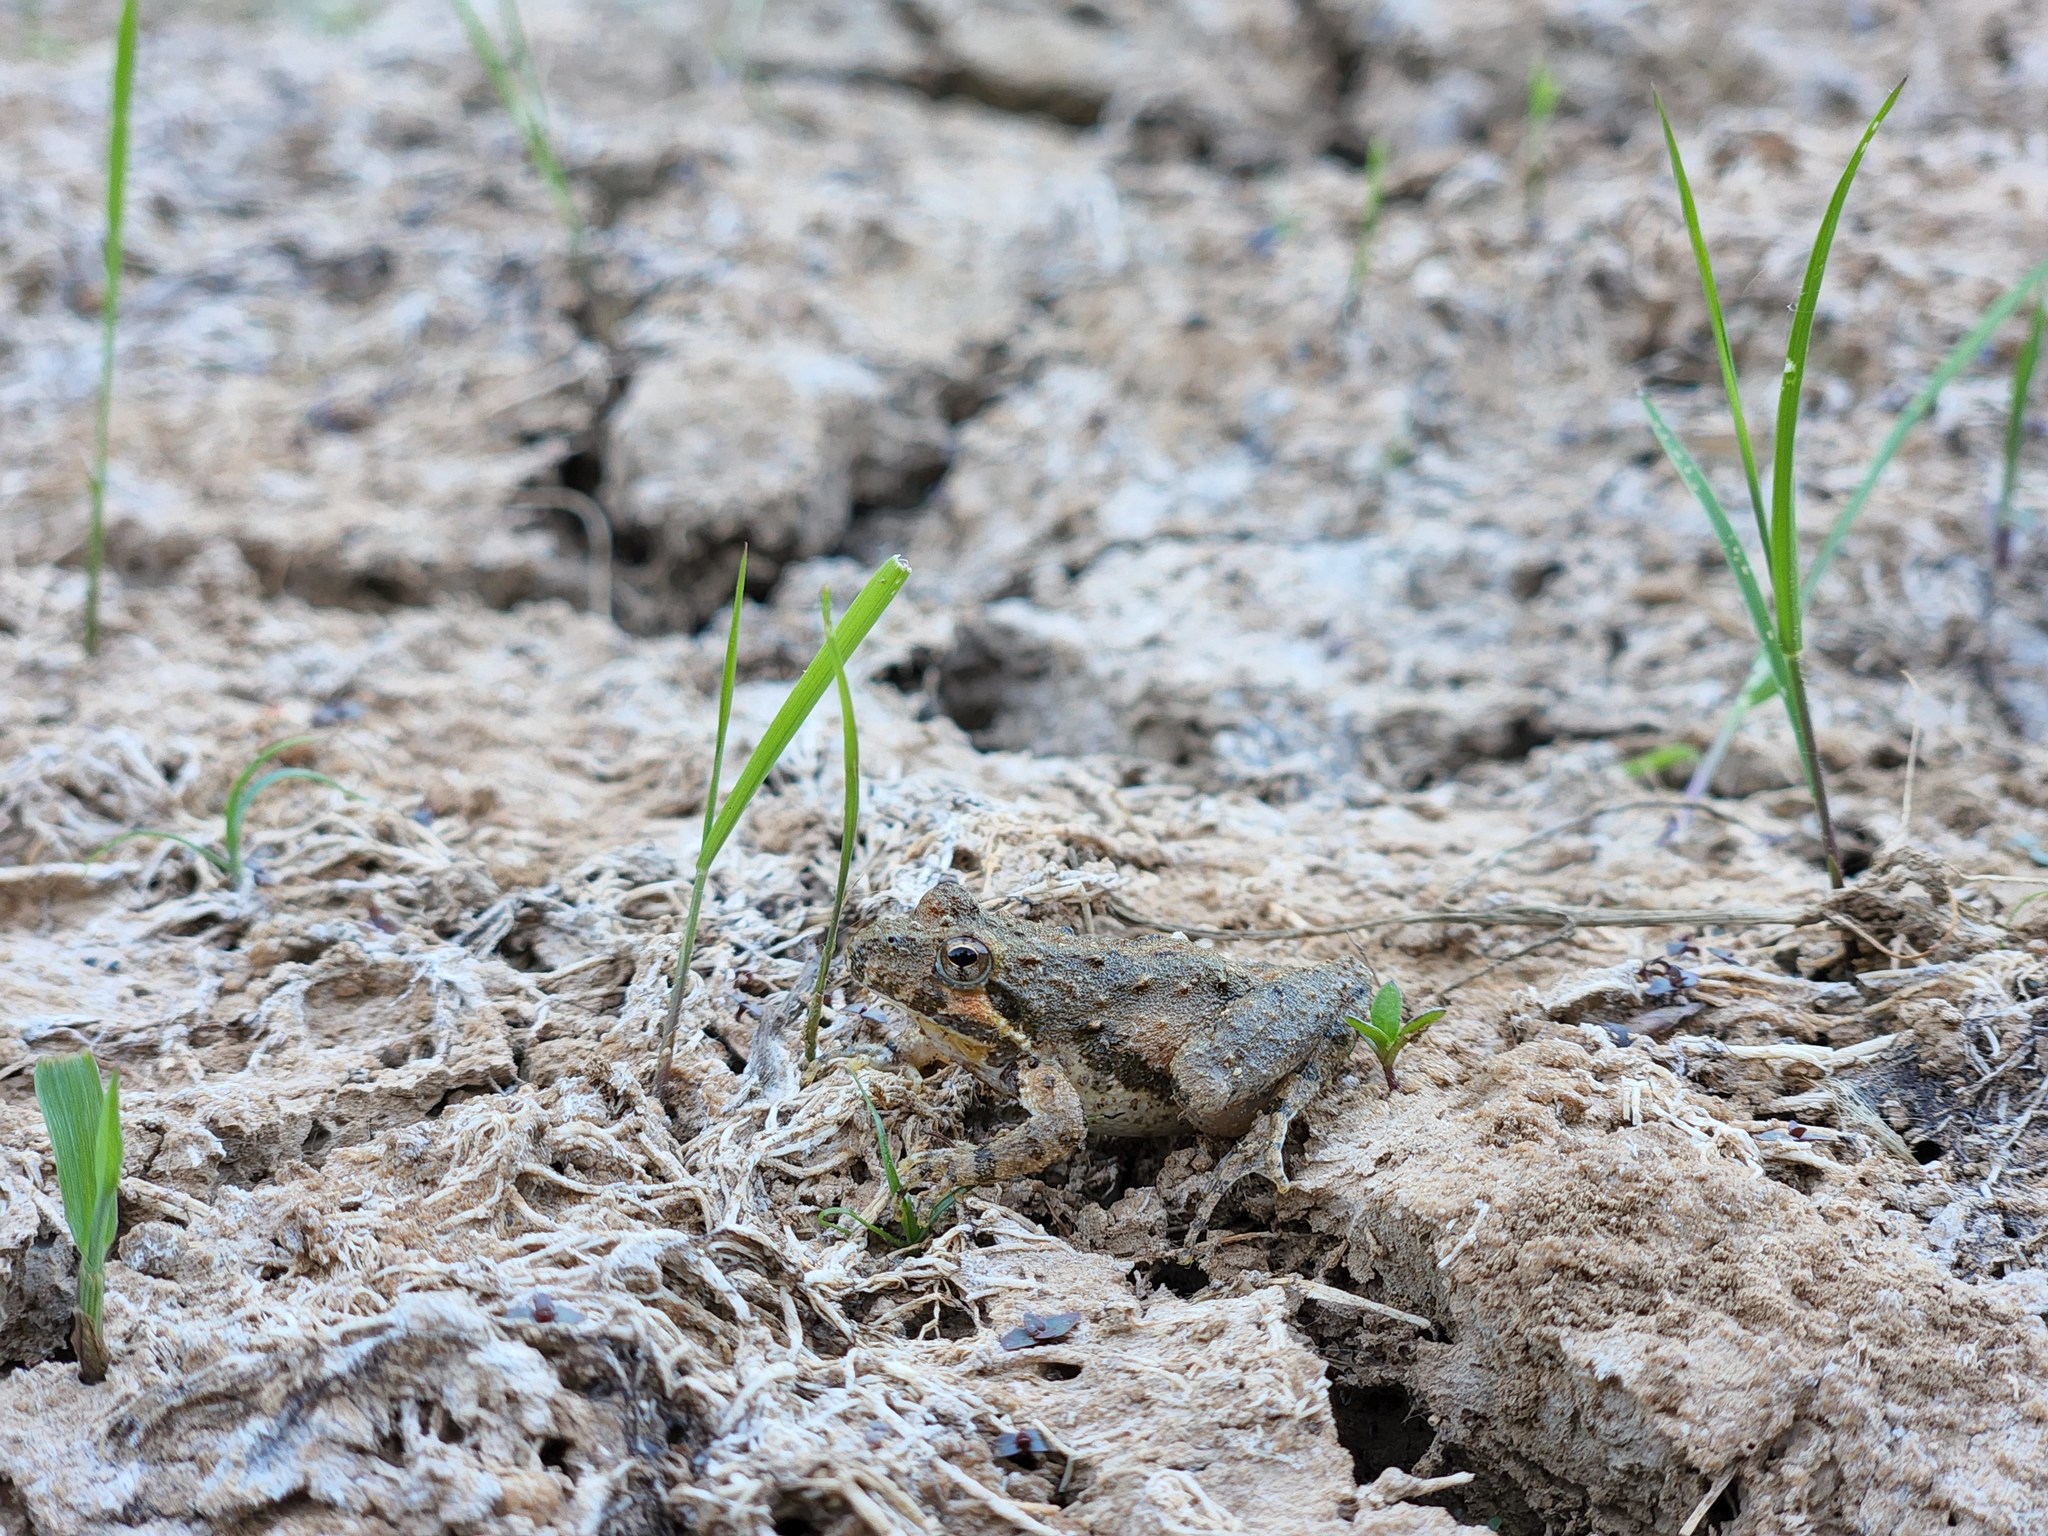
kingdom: Animalia
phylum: Chordata
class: Amphibia
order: Anura
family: Hylidae
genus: Acris
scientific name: Acris crepitans
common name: Northern cricket frog
